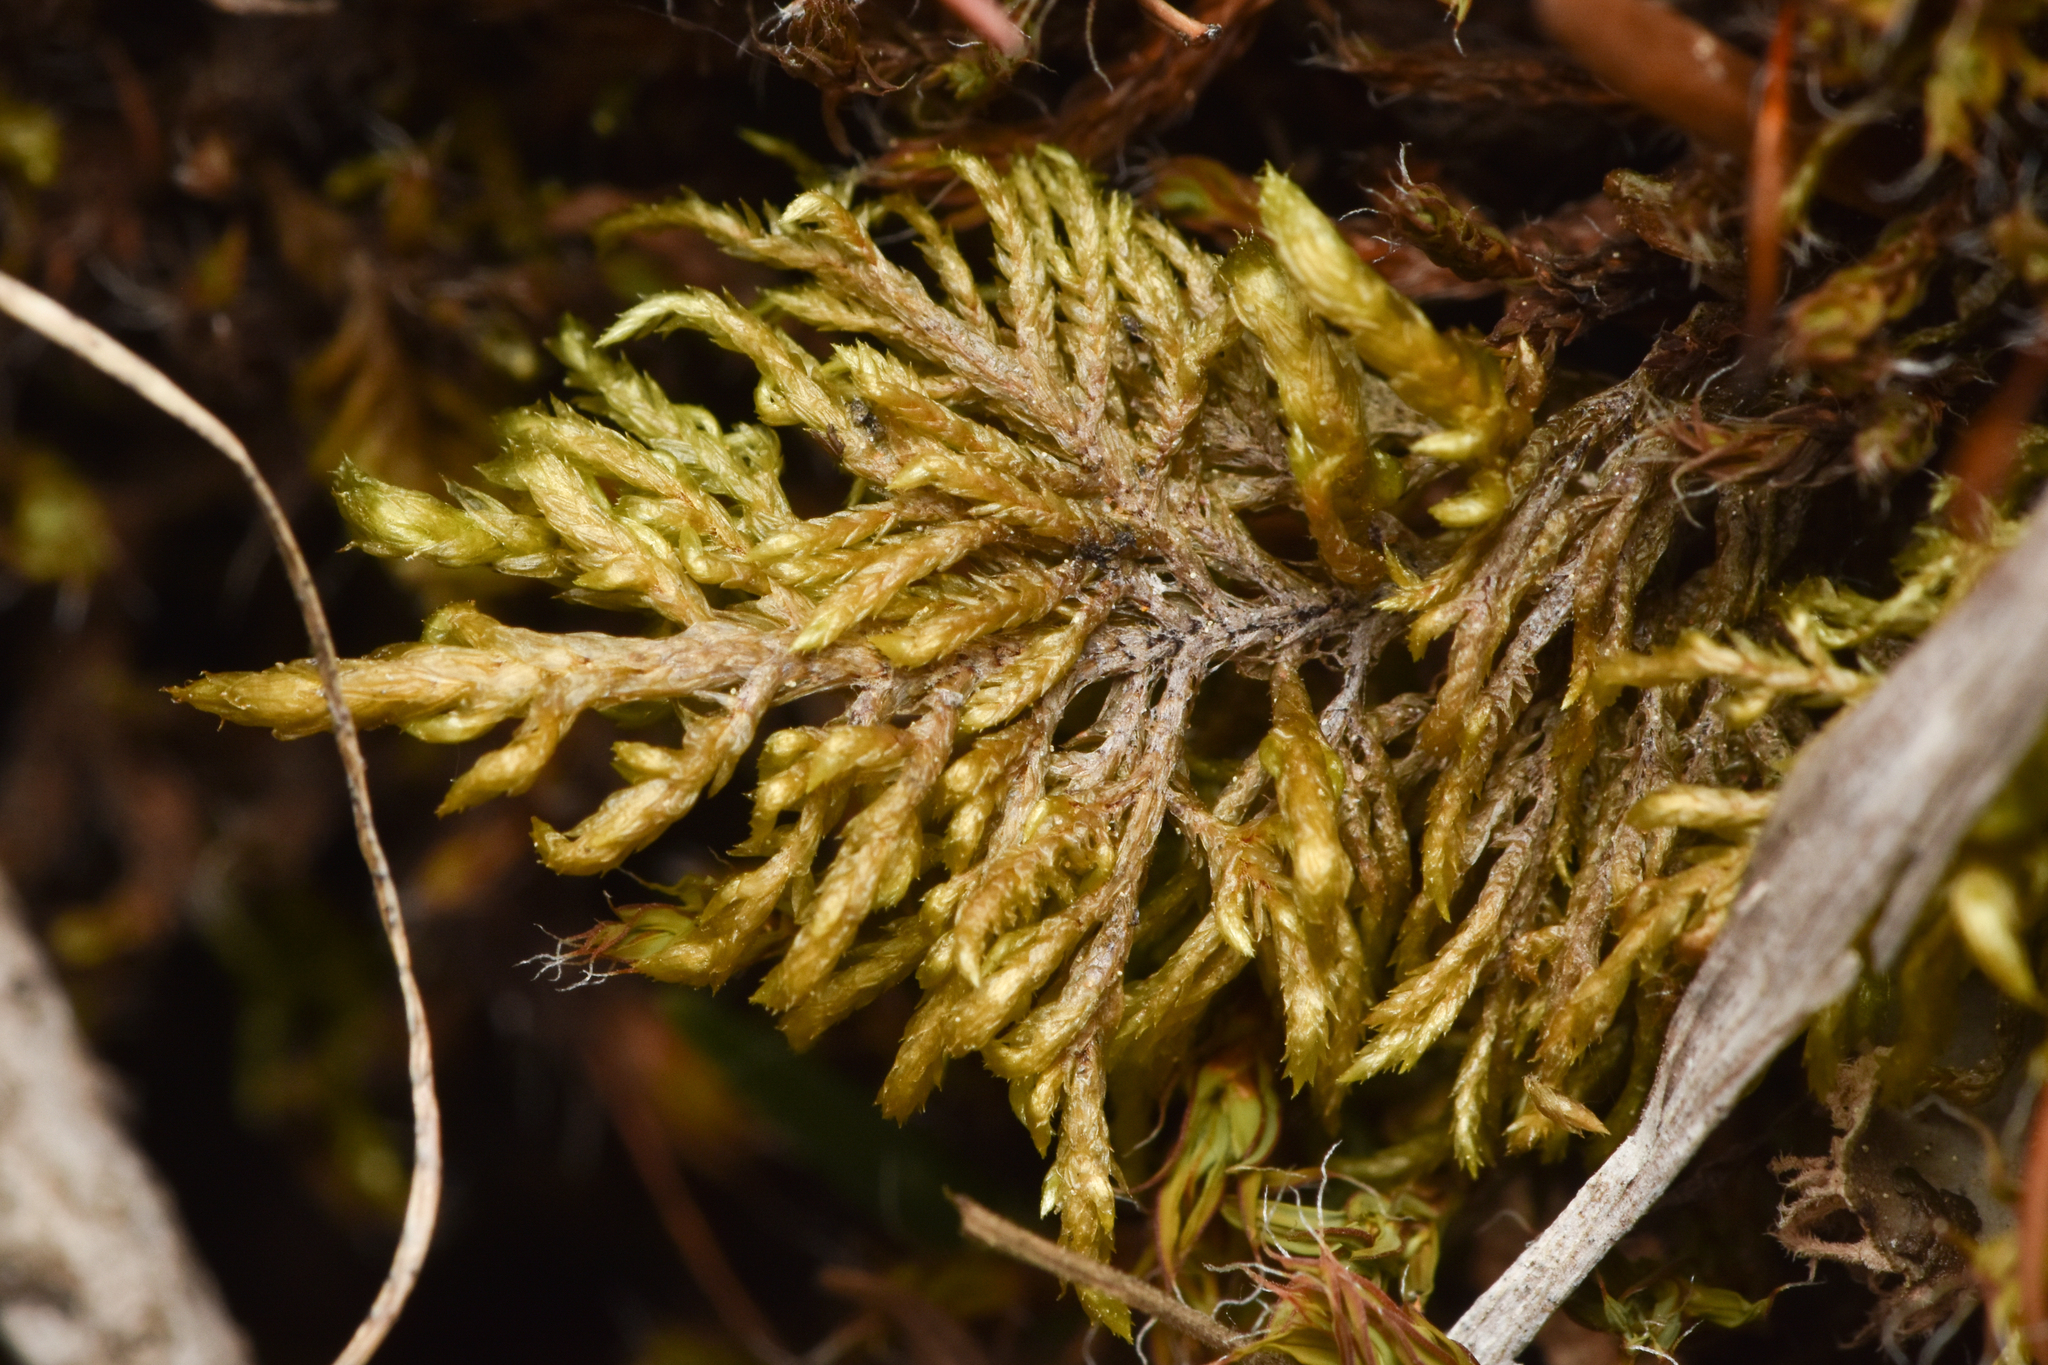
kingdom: Plantae
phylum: Bryophyta
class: Bryopsida
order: Hypnales
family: Hylocomiaceae
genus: Hylocomium
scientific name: Hylocomium splendens
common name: Stairstep moss
